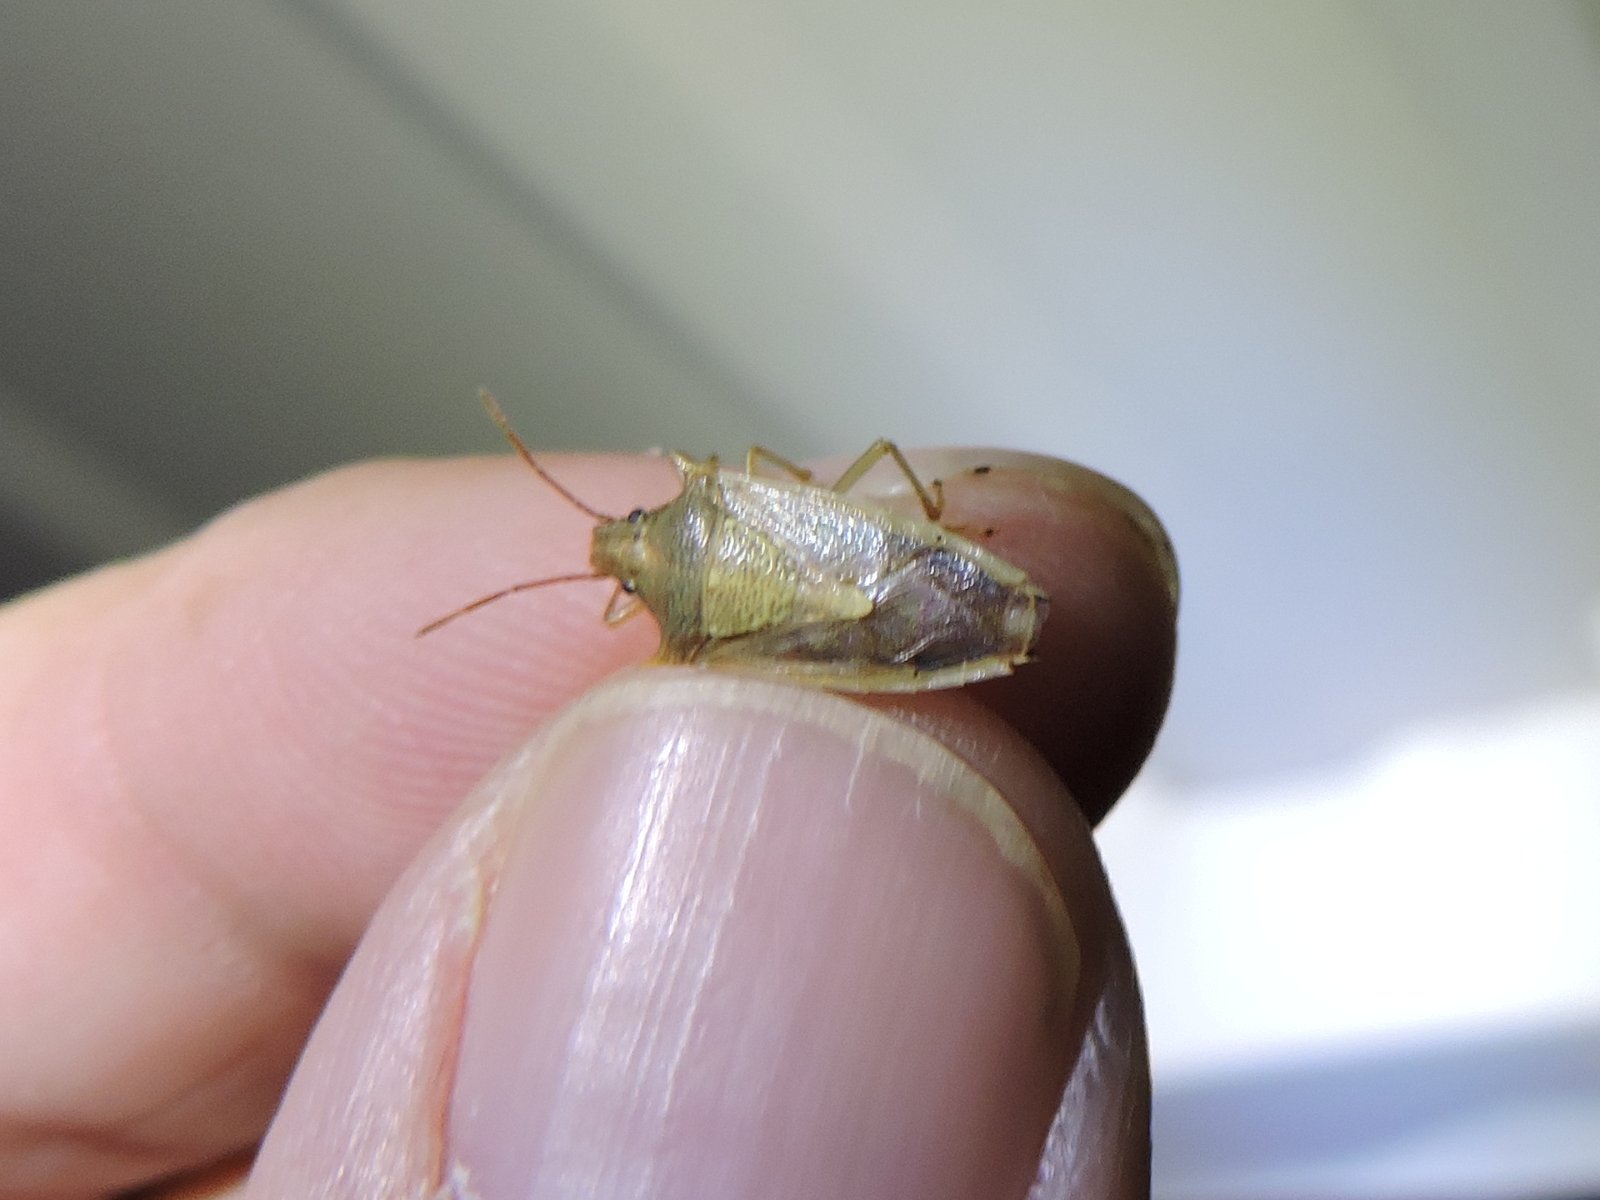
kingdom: Animalia
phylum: Arthropoda
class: Insecta
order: Hemiptera
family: Pentatomidae
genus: Oebalus
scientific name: Oebalus pugnax
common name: Rice stink bug
